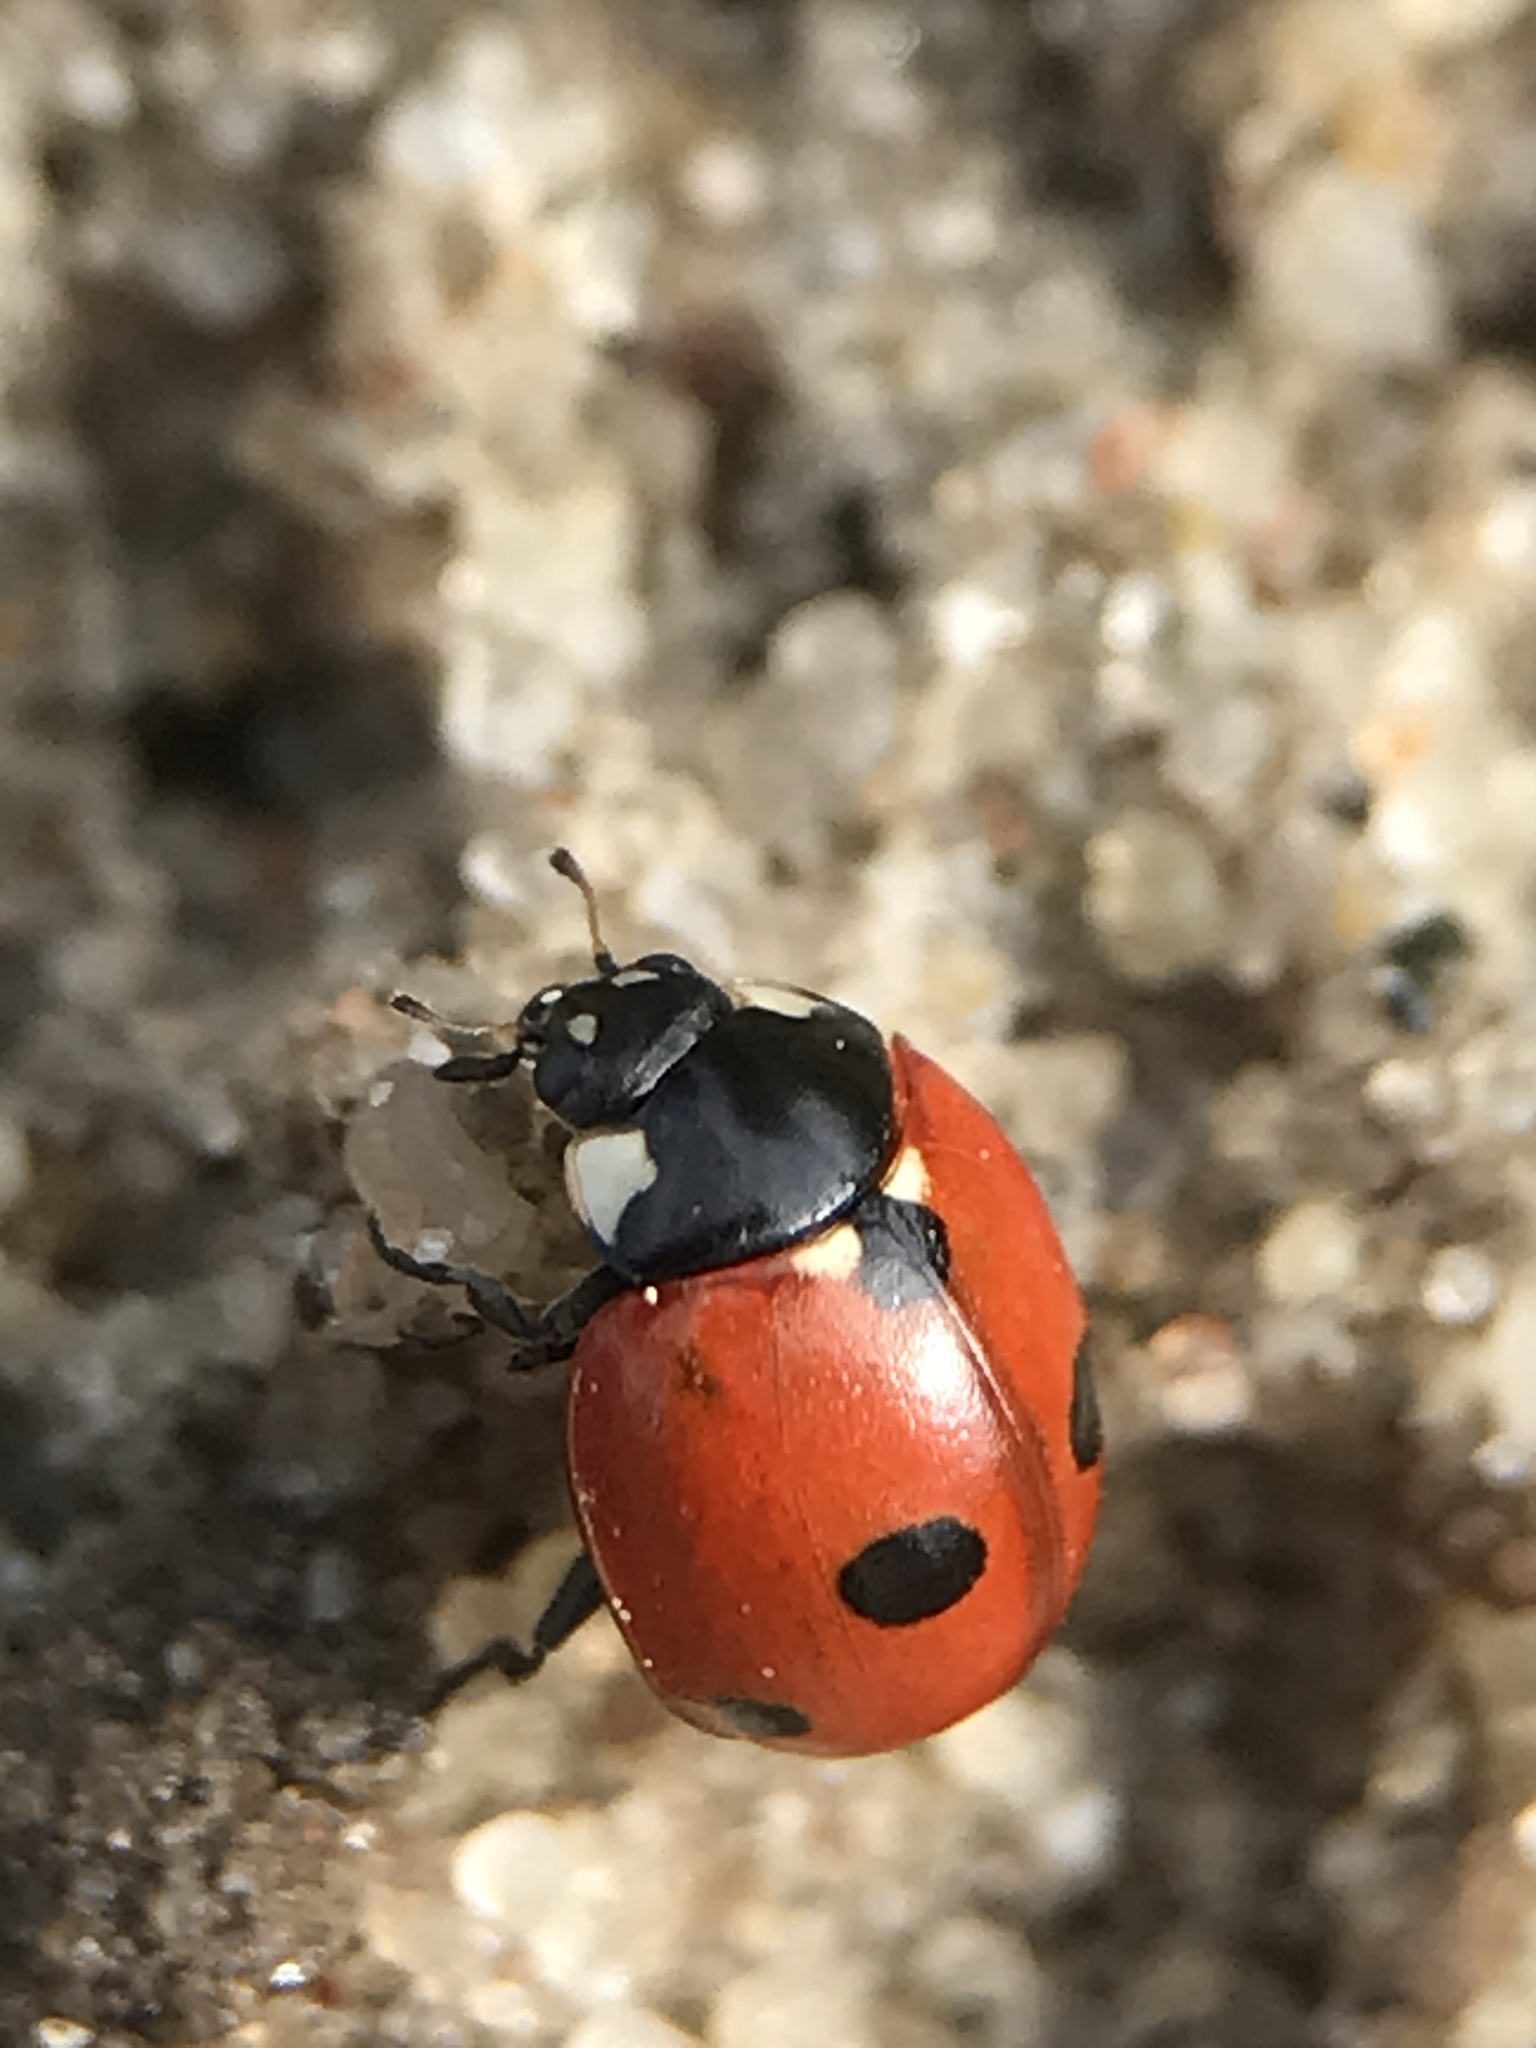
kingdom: Animalia
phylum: Arthropoda
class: Insecta
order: Coleoptera
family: Coccinellidae
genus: Coccinella
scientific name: Coccinella quinquepunctata
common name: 5-spot ladybird
